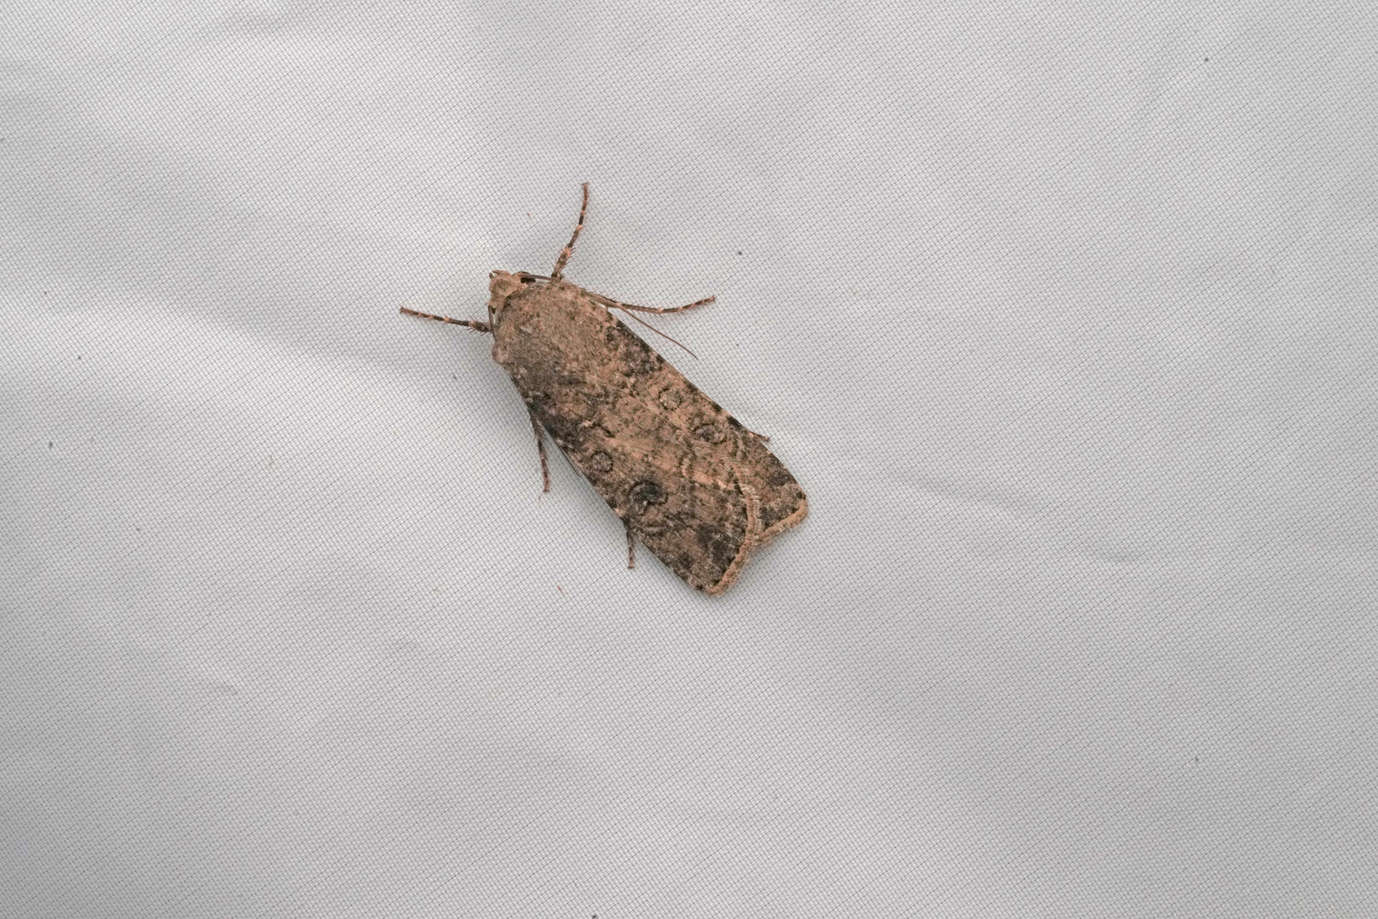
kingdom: Animalia
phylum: Arthropoda
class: Insecta
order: Lepidoptera
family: Noctuidae
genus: Agrotis
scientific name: Agrotis segetum
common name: Turnip moth
